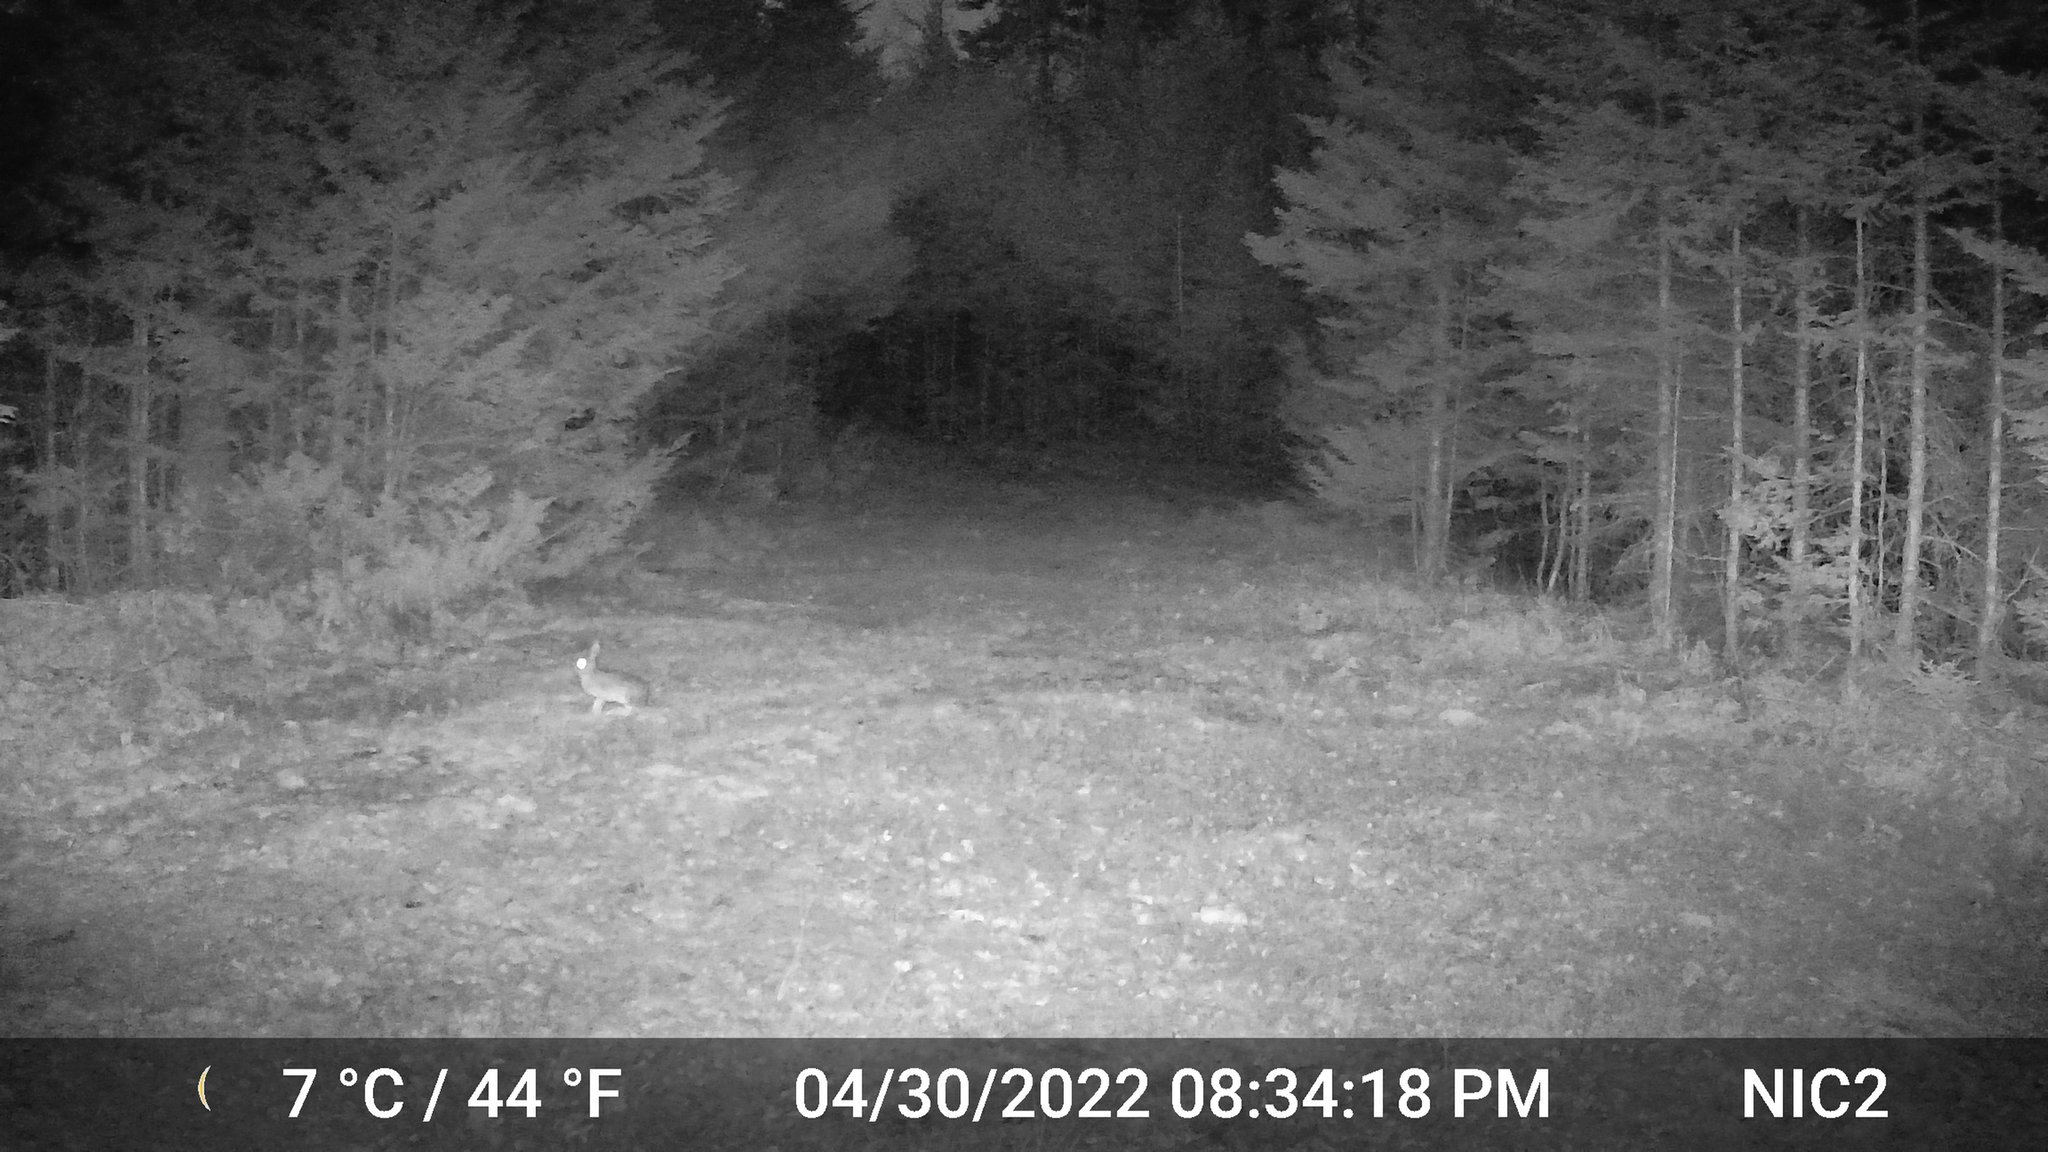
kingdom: Animalia
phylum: Chordata
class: Mammalia
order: Lagomorpha
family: Leporidae
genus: Lepus
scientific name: Lepus americanus
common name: Snowshoe hare
